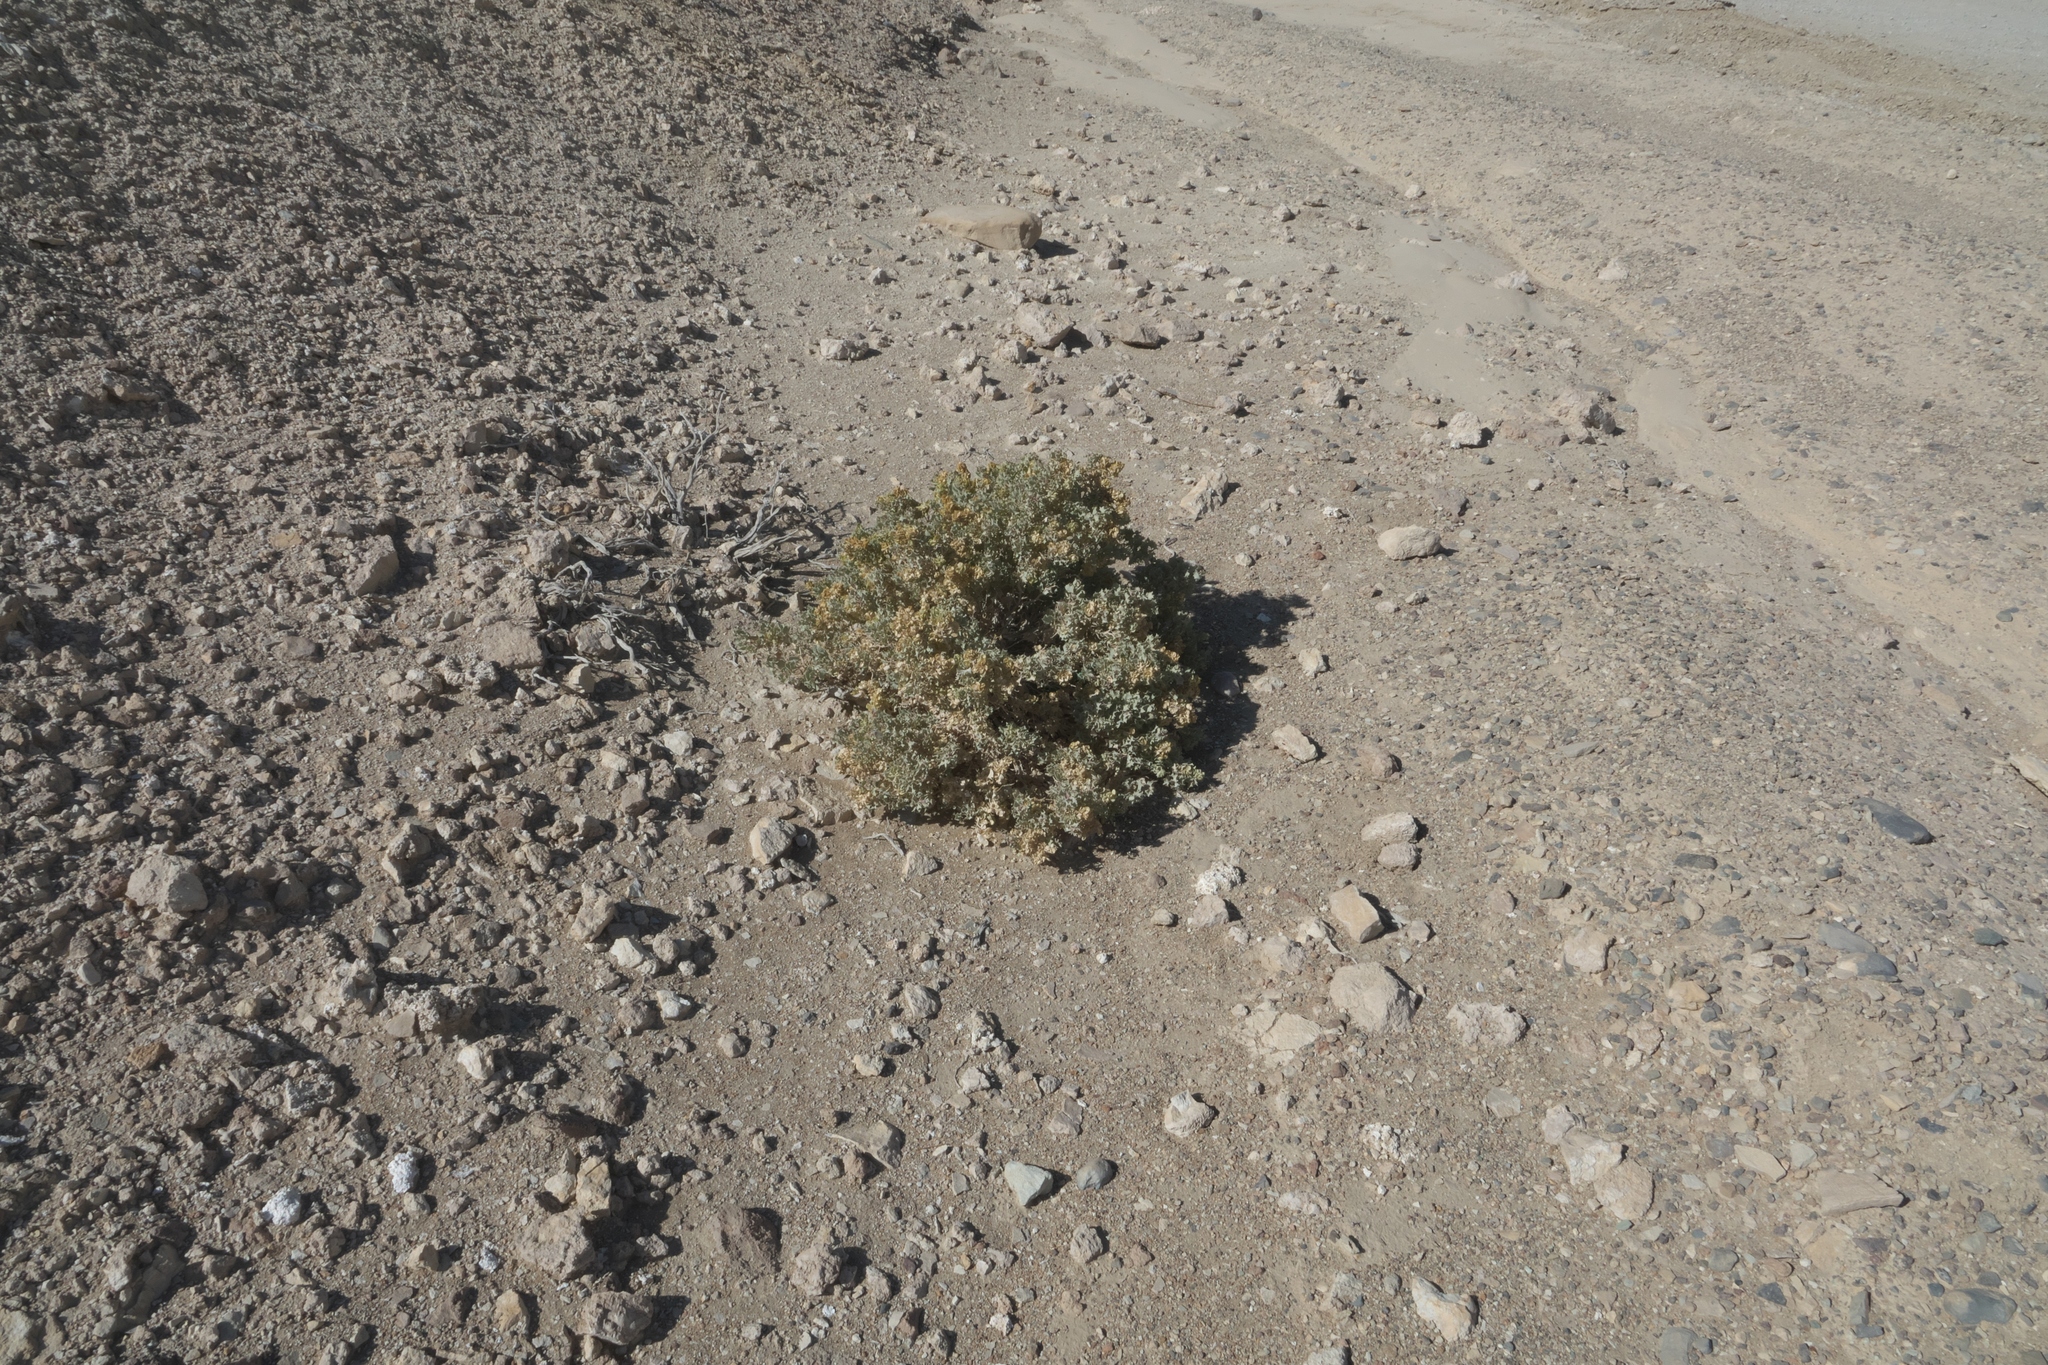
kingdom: Plantae
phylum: Tracheophyta
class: Magnoliopsida
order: Caryophyllales
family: Amaranthaceae
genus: Atriplex
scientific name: Atriplex hymenelytra
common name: Desert-holly
